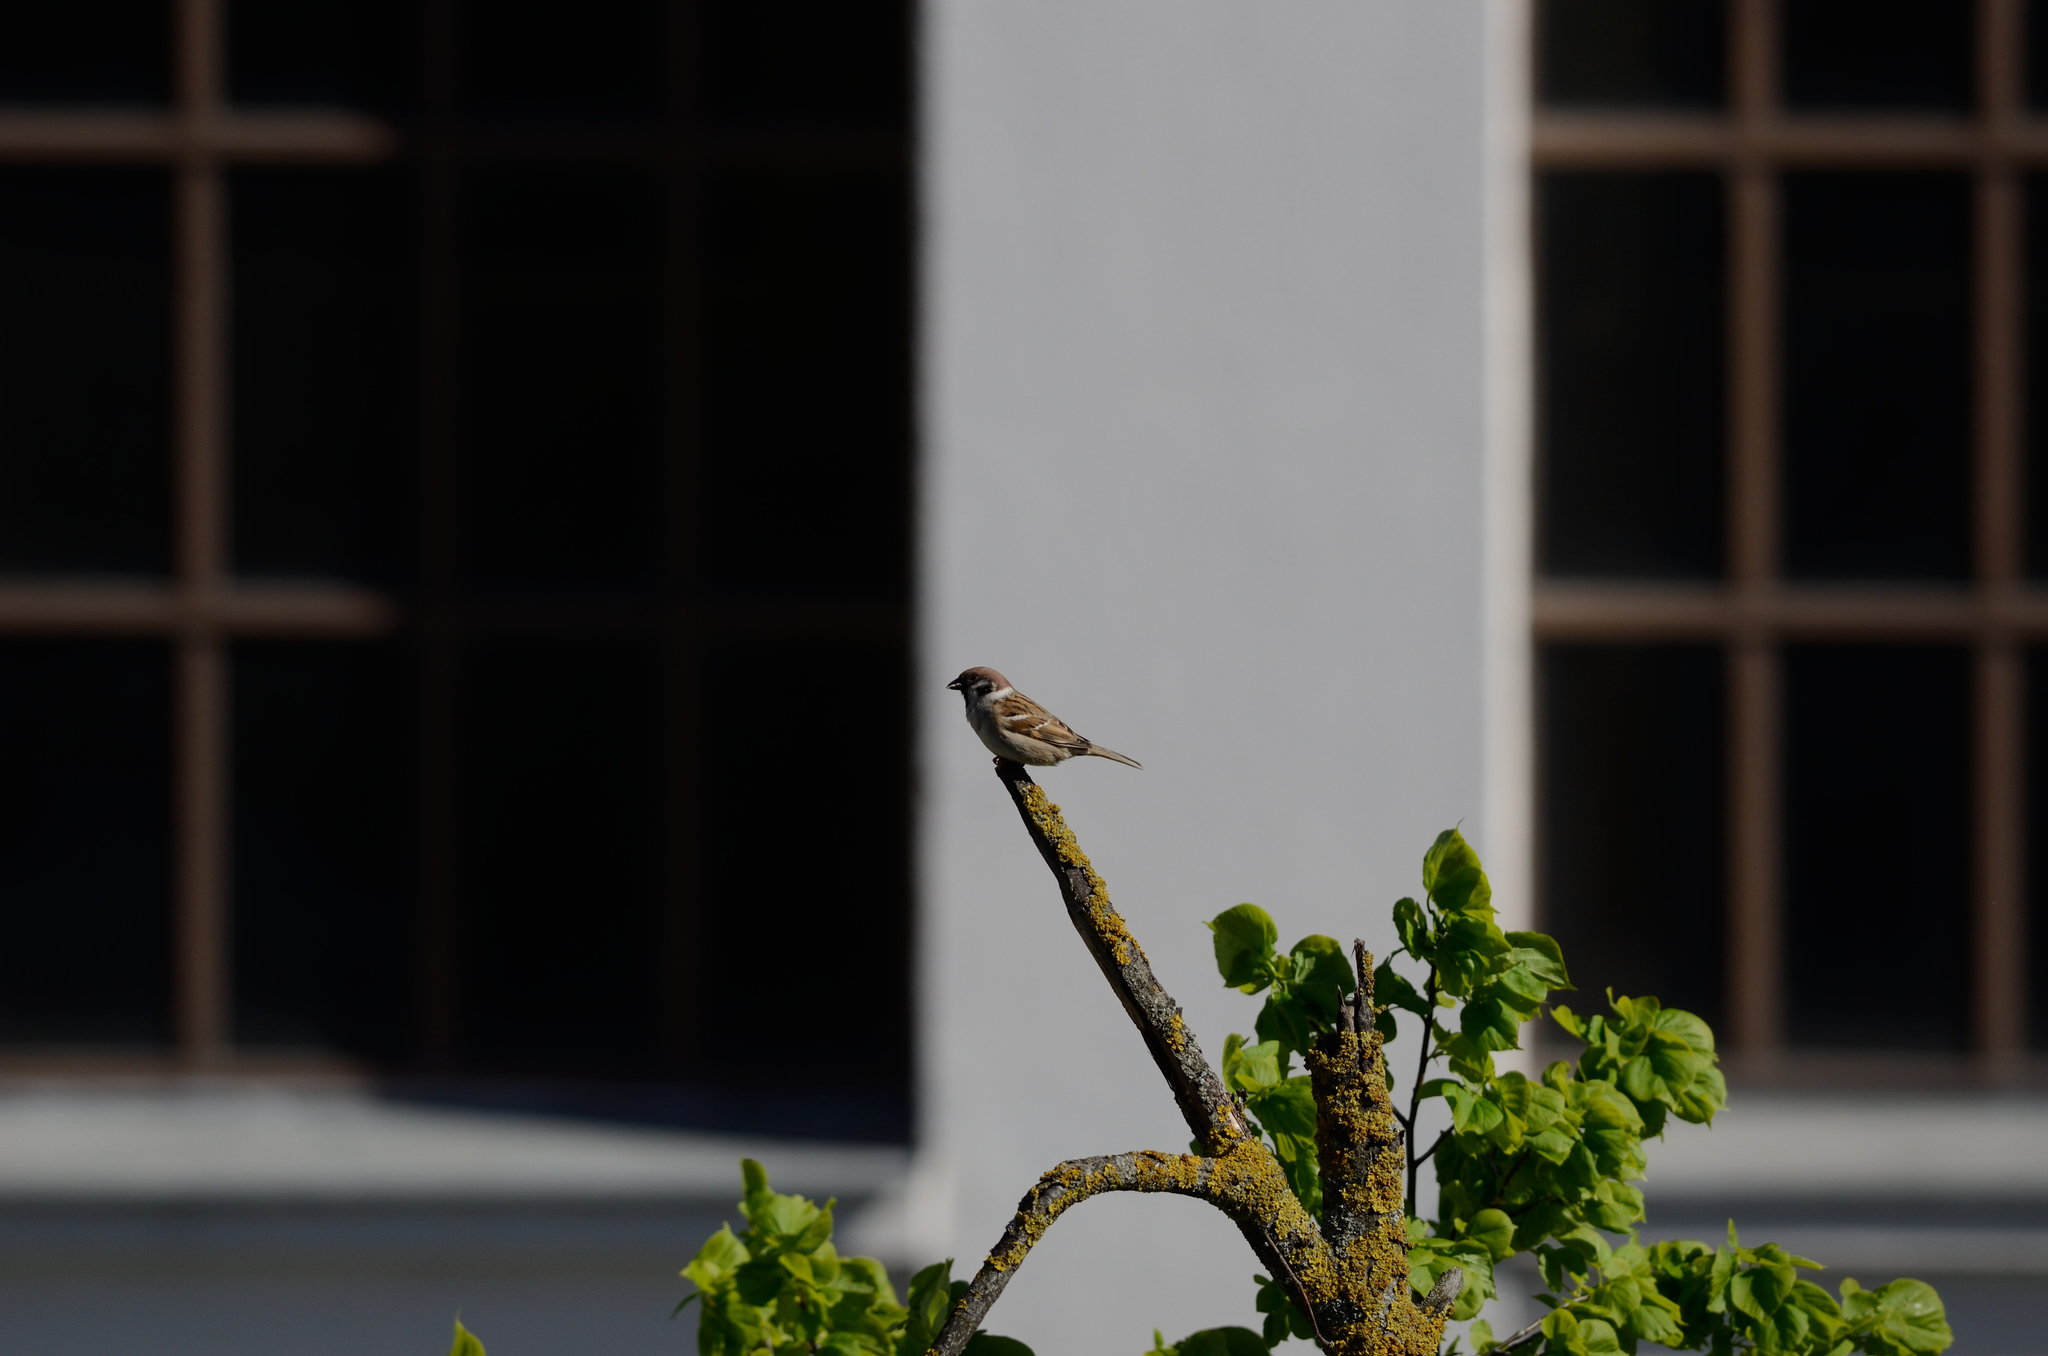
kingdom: Animalia
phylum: Chordata
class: Aves
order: Passeriformes
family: Passeridae
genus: Passer
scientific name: Passer montanus
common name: Eurasian tree sparrow
